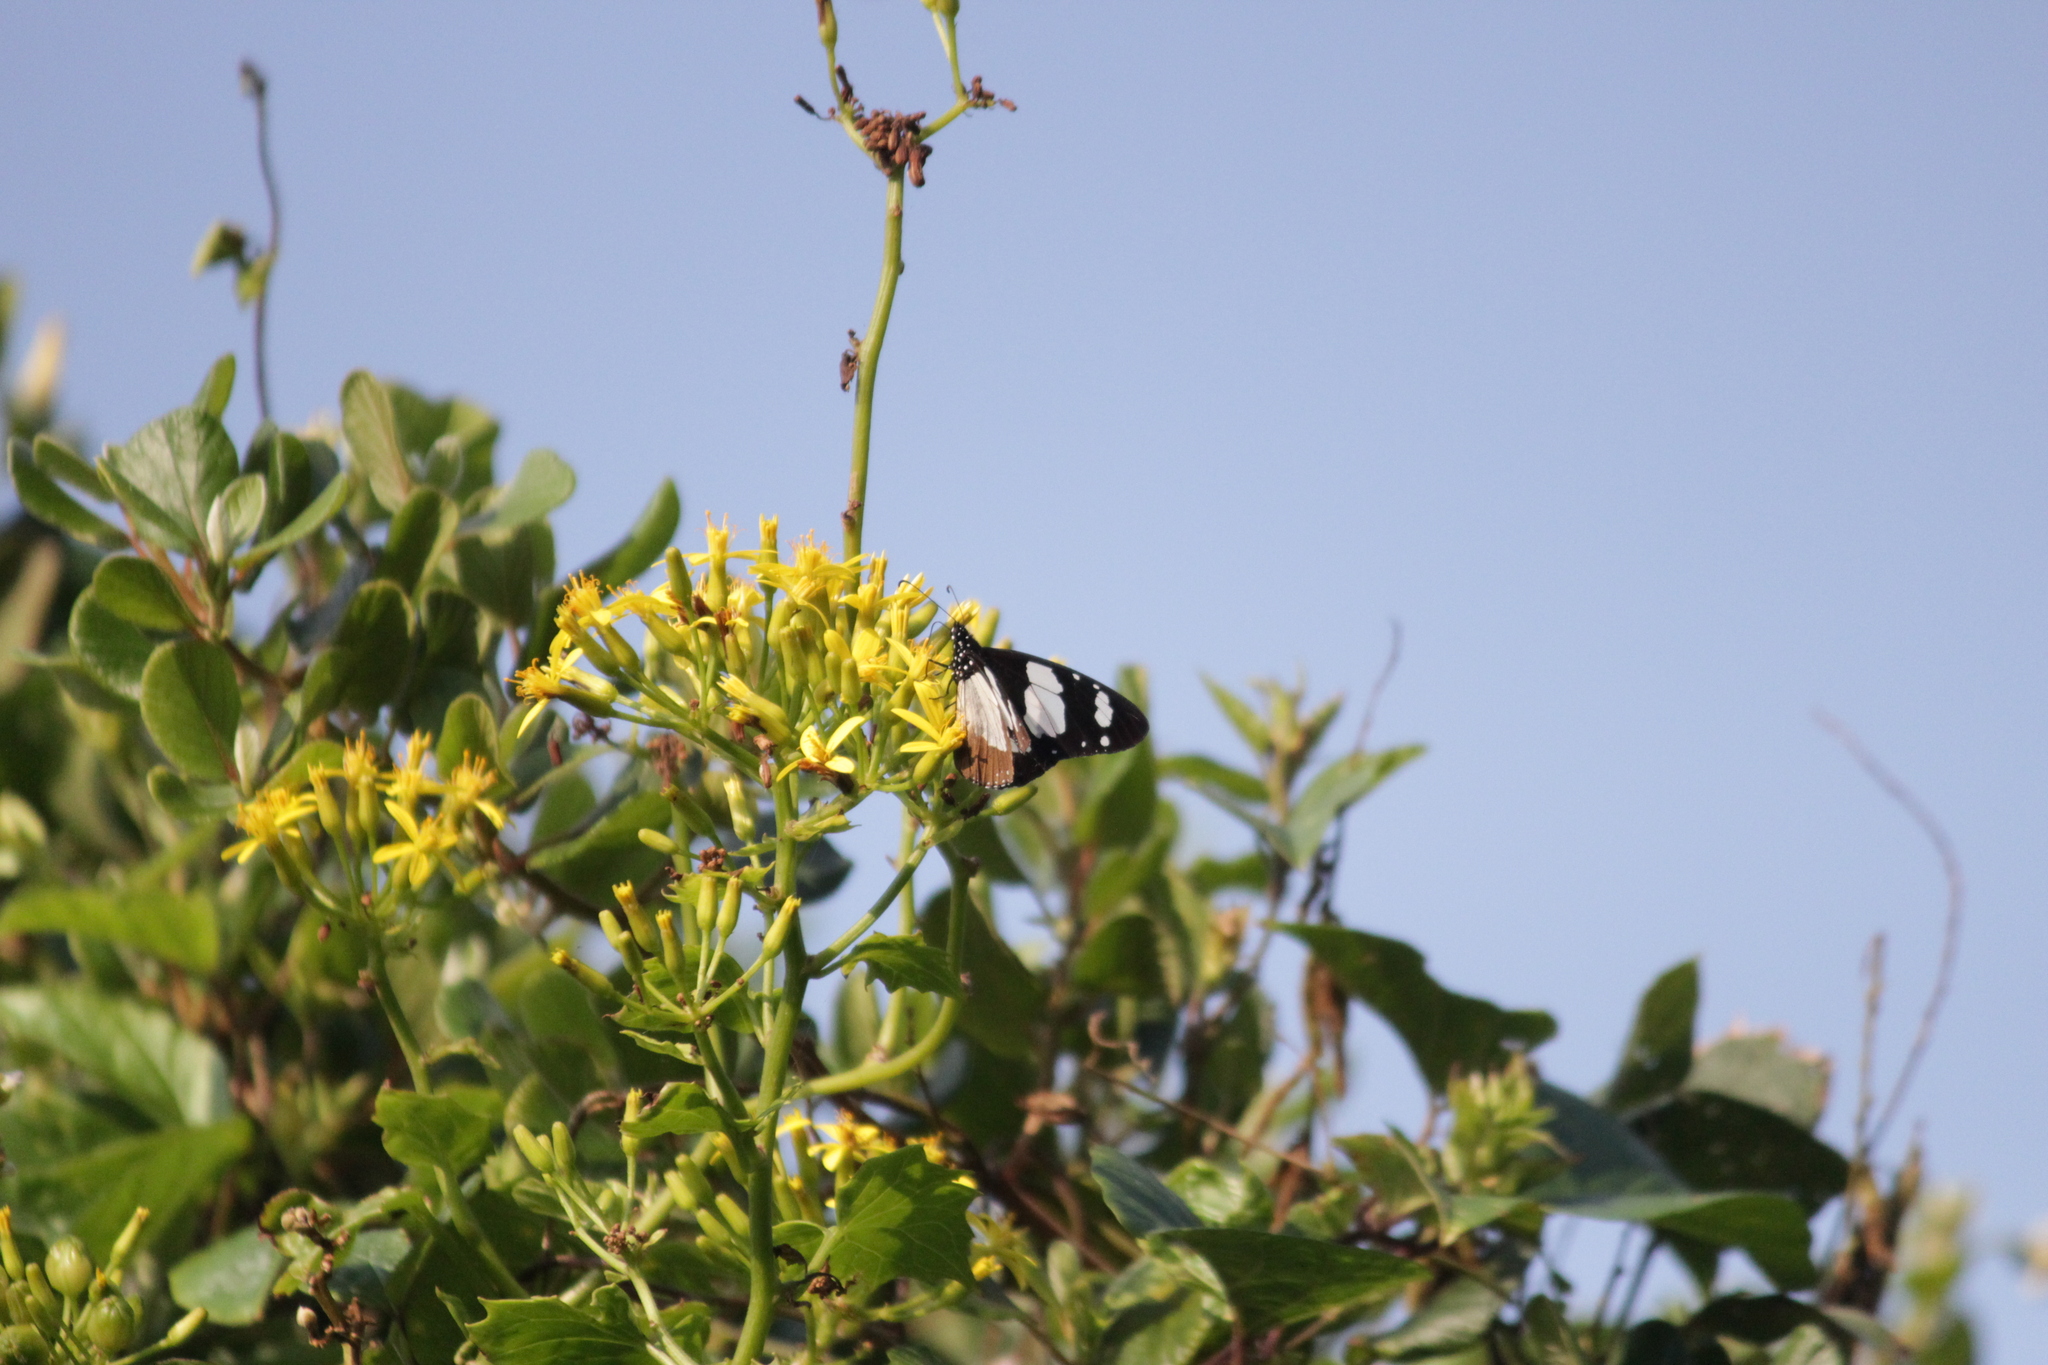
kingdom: Animalia
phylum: Arthropoda
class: Insecta
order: Lepidoptera
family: Nymphalidae
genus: Amauris
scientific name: Amauris ochlea
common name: Novice
